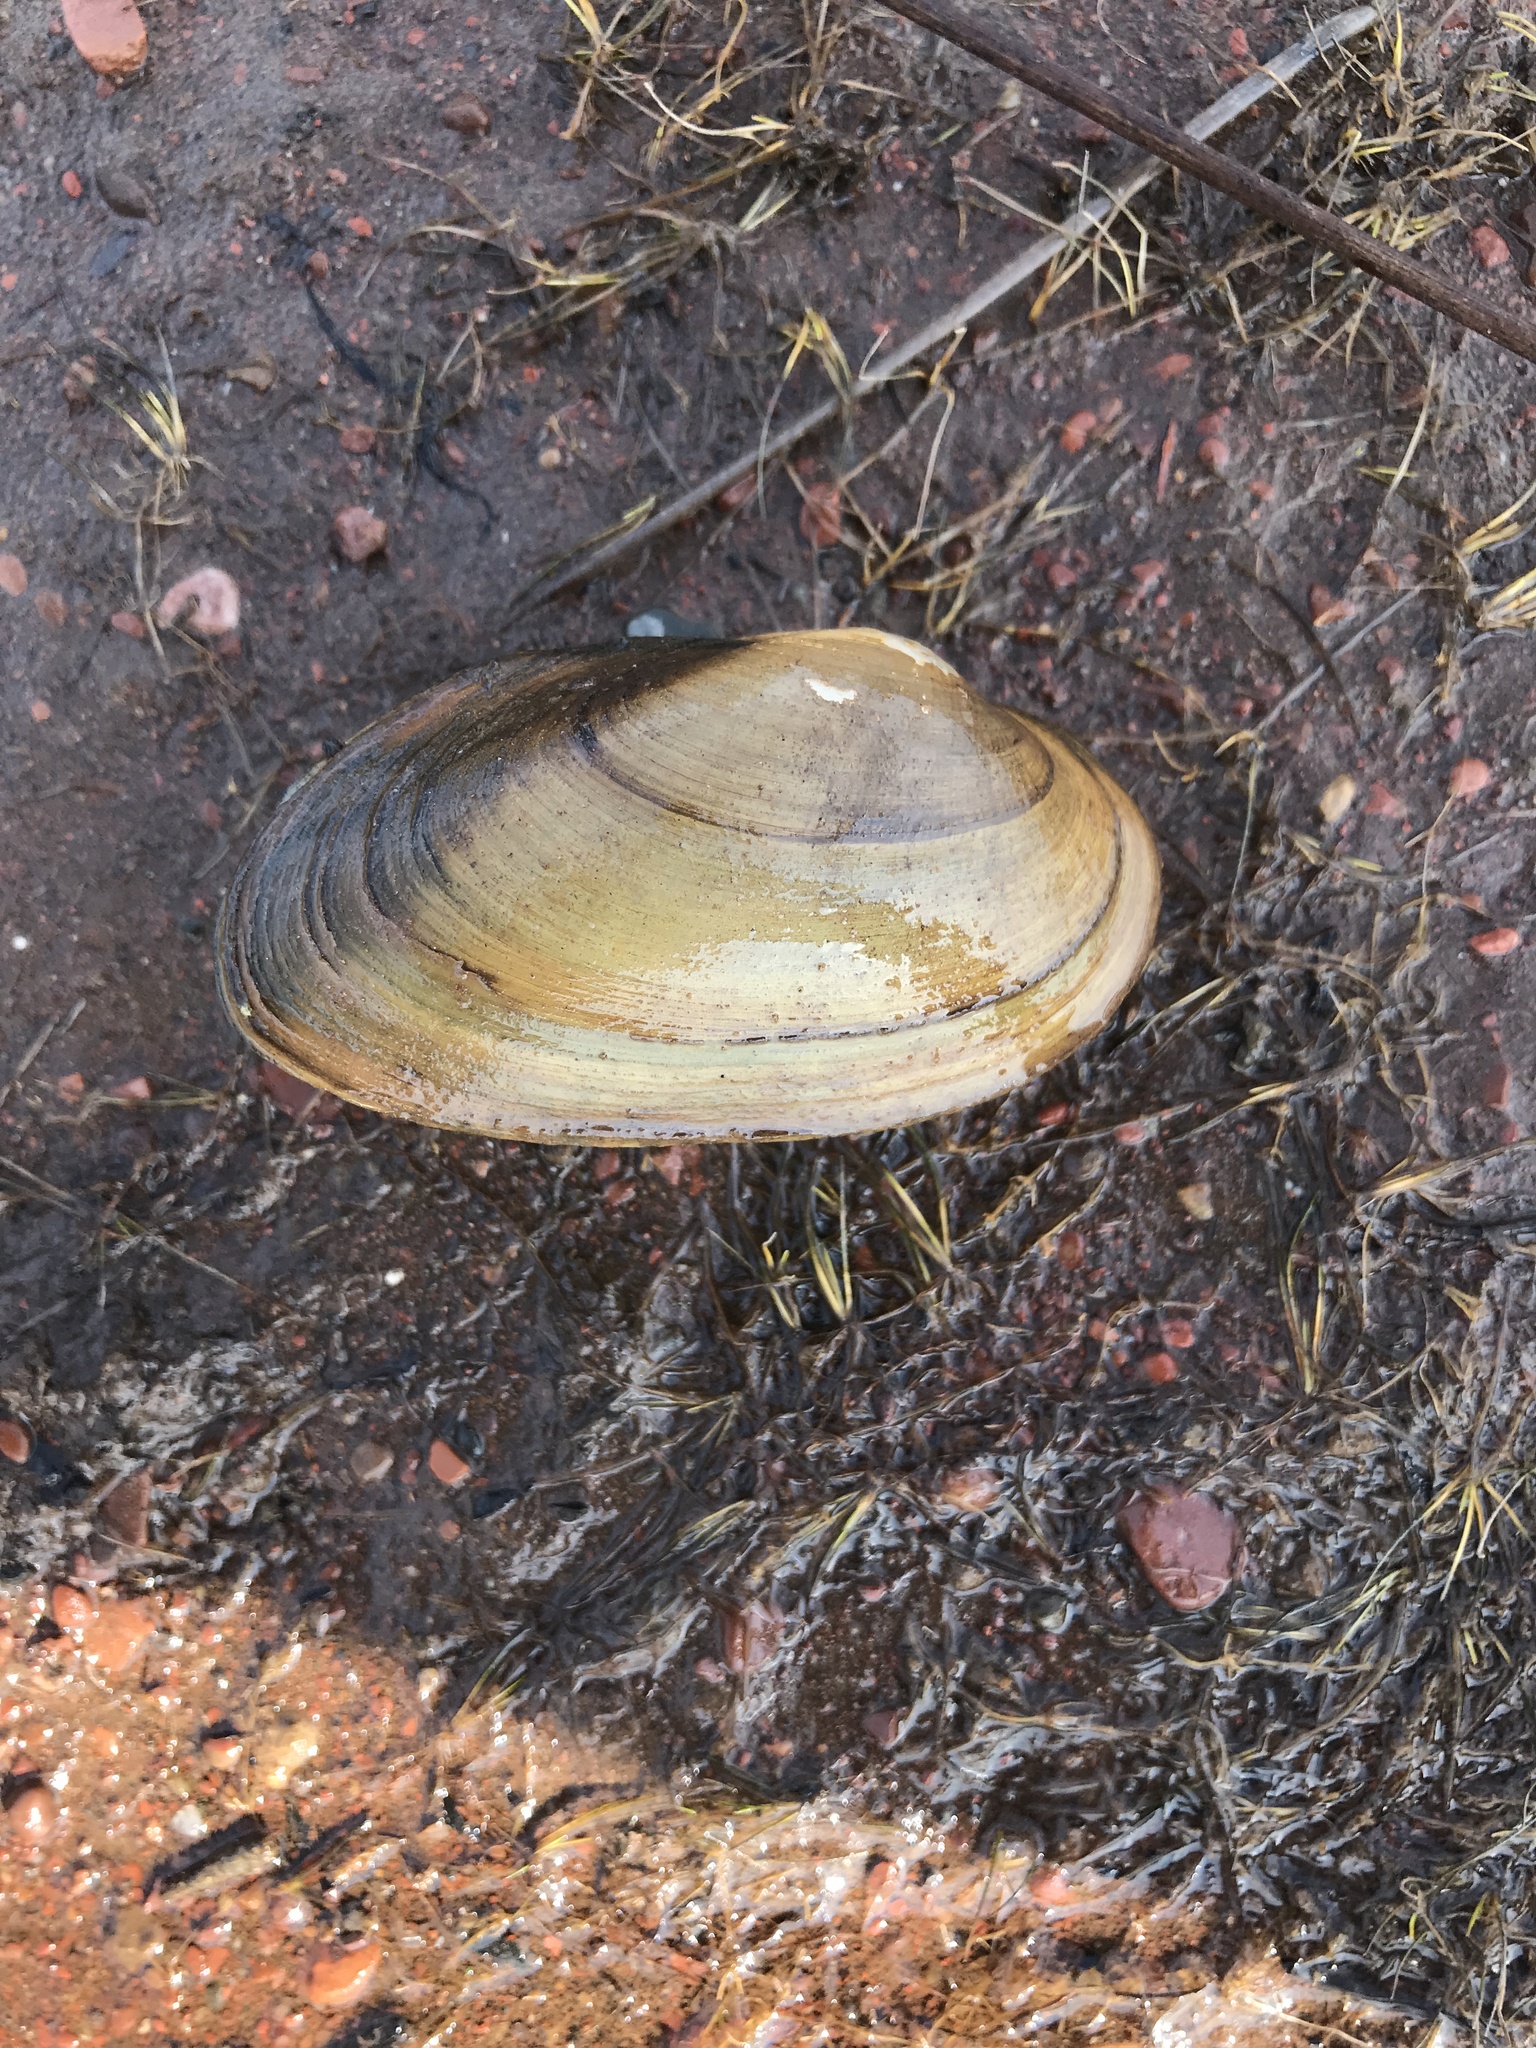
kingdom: Animalia
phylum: Mollusca
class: Bivalvia
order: Unionida
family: Unionidae
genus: Pyganodon
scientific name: Pyganodon grandis
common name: Giant floater
